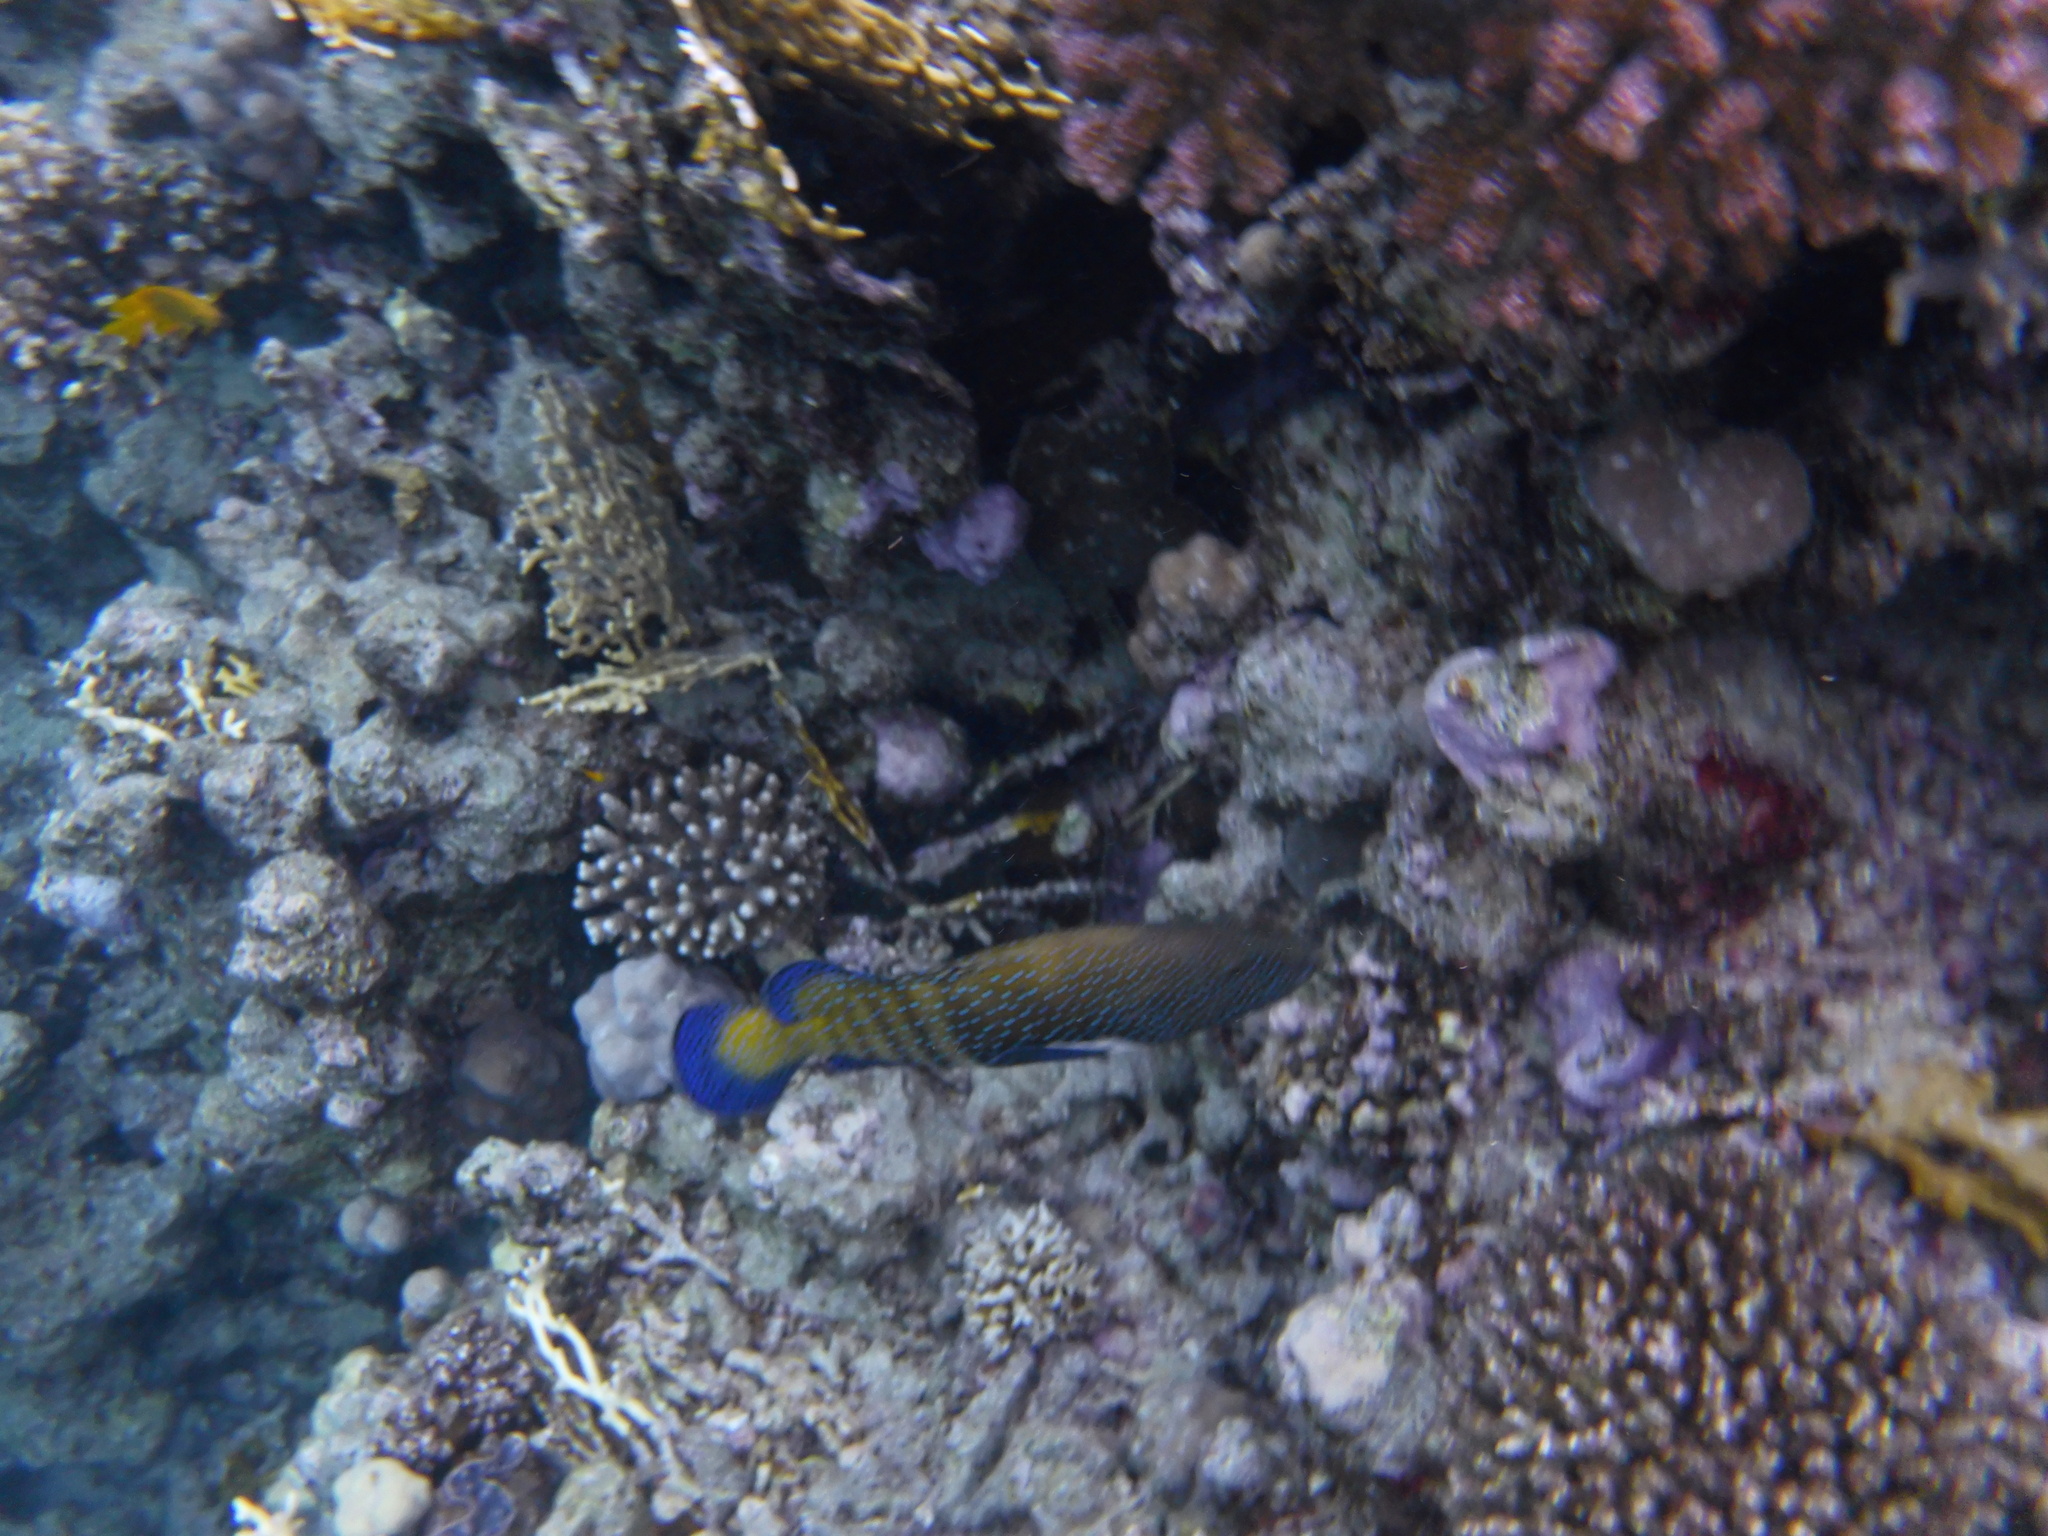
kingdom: Animalia
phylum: Chordata
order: Perciformes
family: Serranidae
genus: Cephalopholis
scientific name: Cephalopholis argus
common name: Peacock grouper
